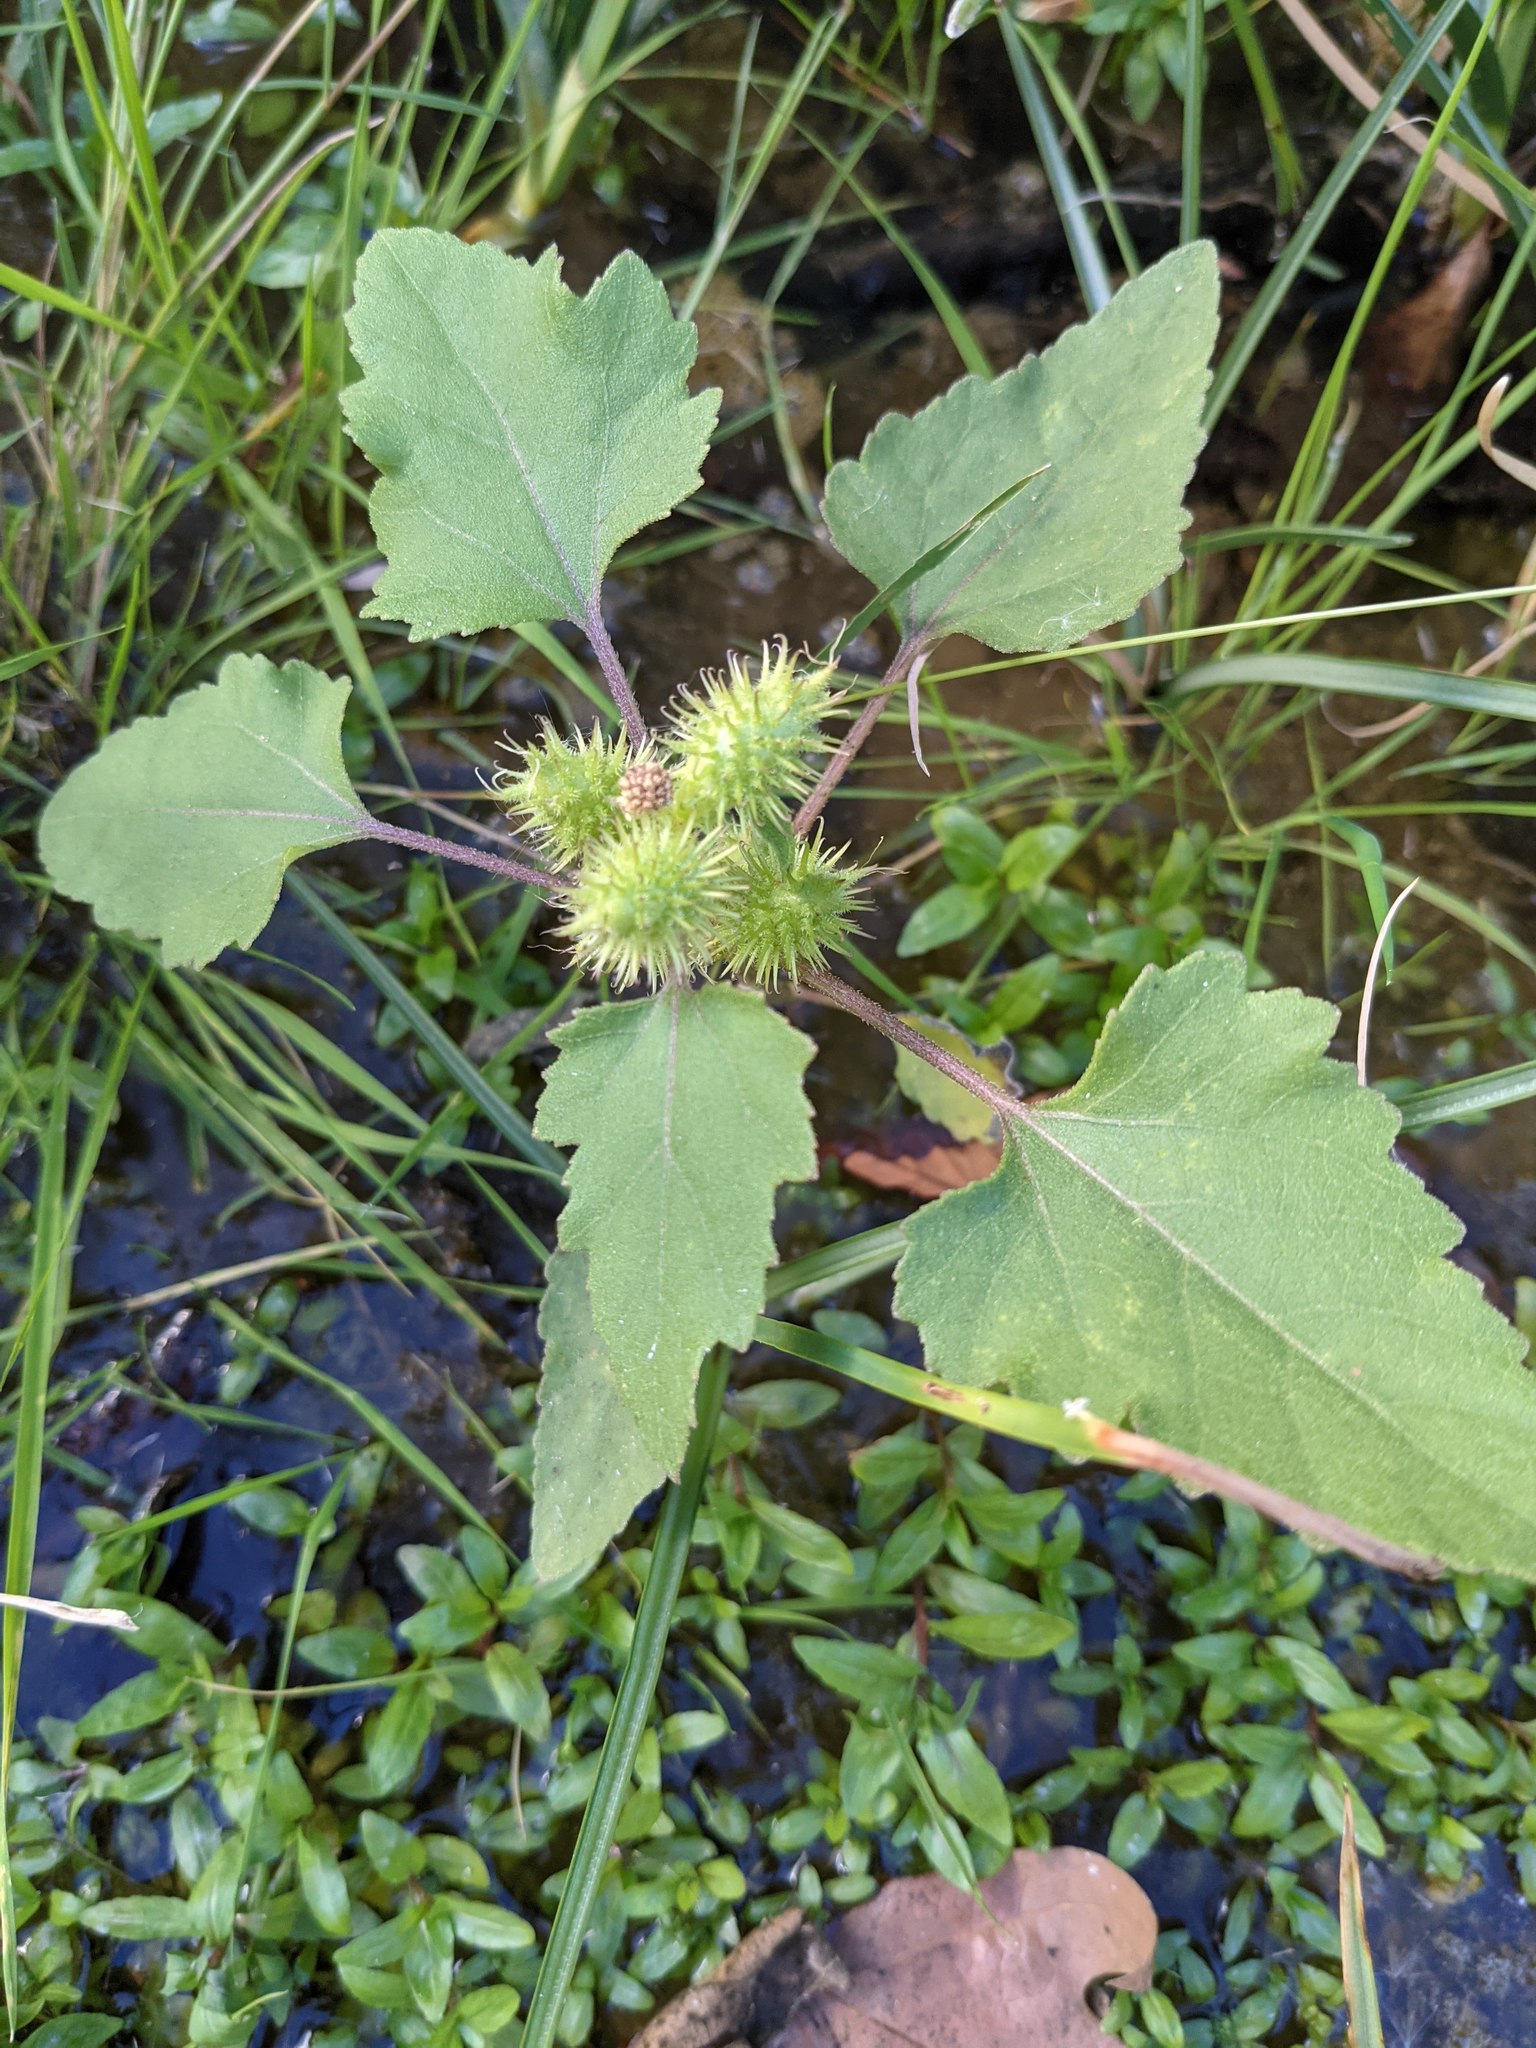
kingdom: Plantae
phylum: Tracheophyta
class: Magnoliopsida
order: Asterales
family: Asteraceae
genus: Xanthium
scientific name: Xanthium strumarium
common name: Rough cocklebur
